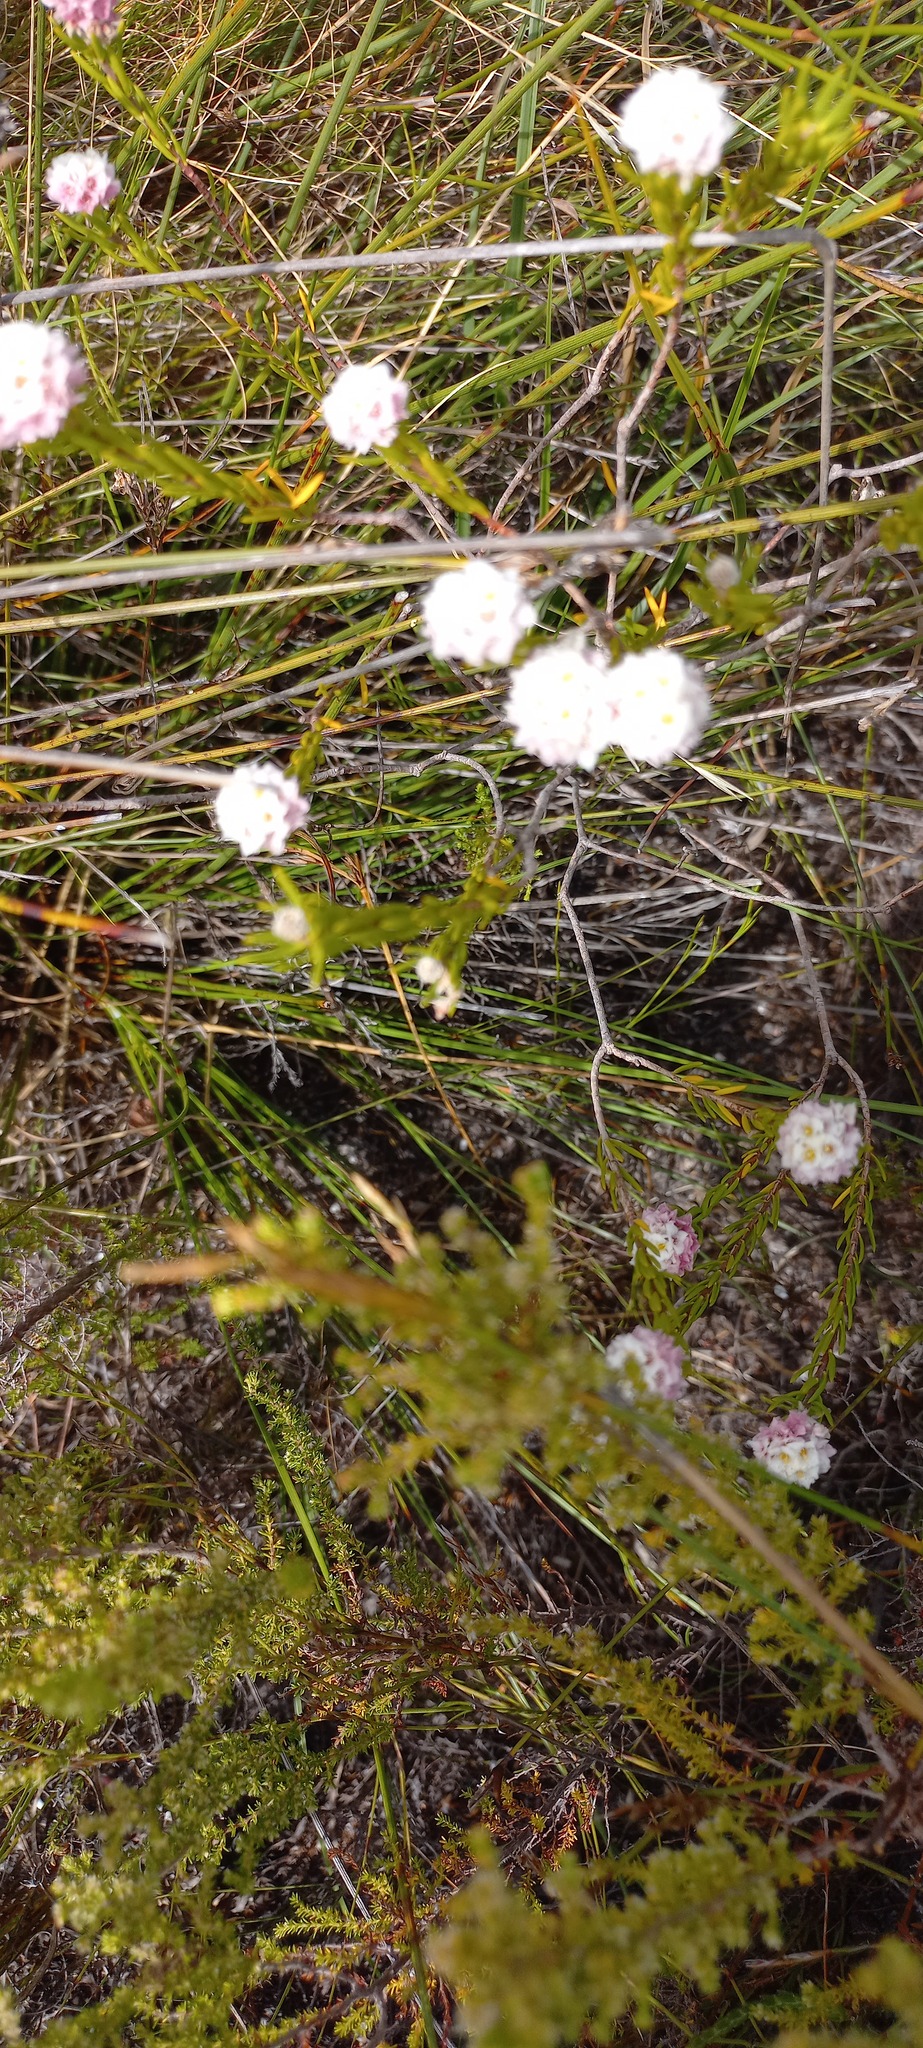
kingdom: Plantae
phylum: Tracheophyta
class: Magnoliopsida
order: Malvales
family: Thymelaeaceae
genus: Lachnaea
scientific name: Lachnaea densiflora
